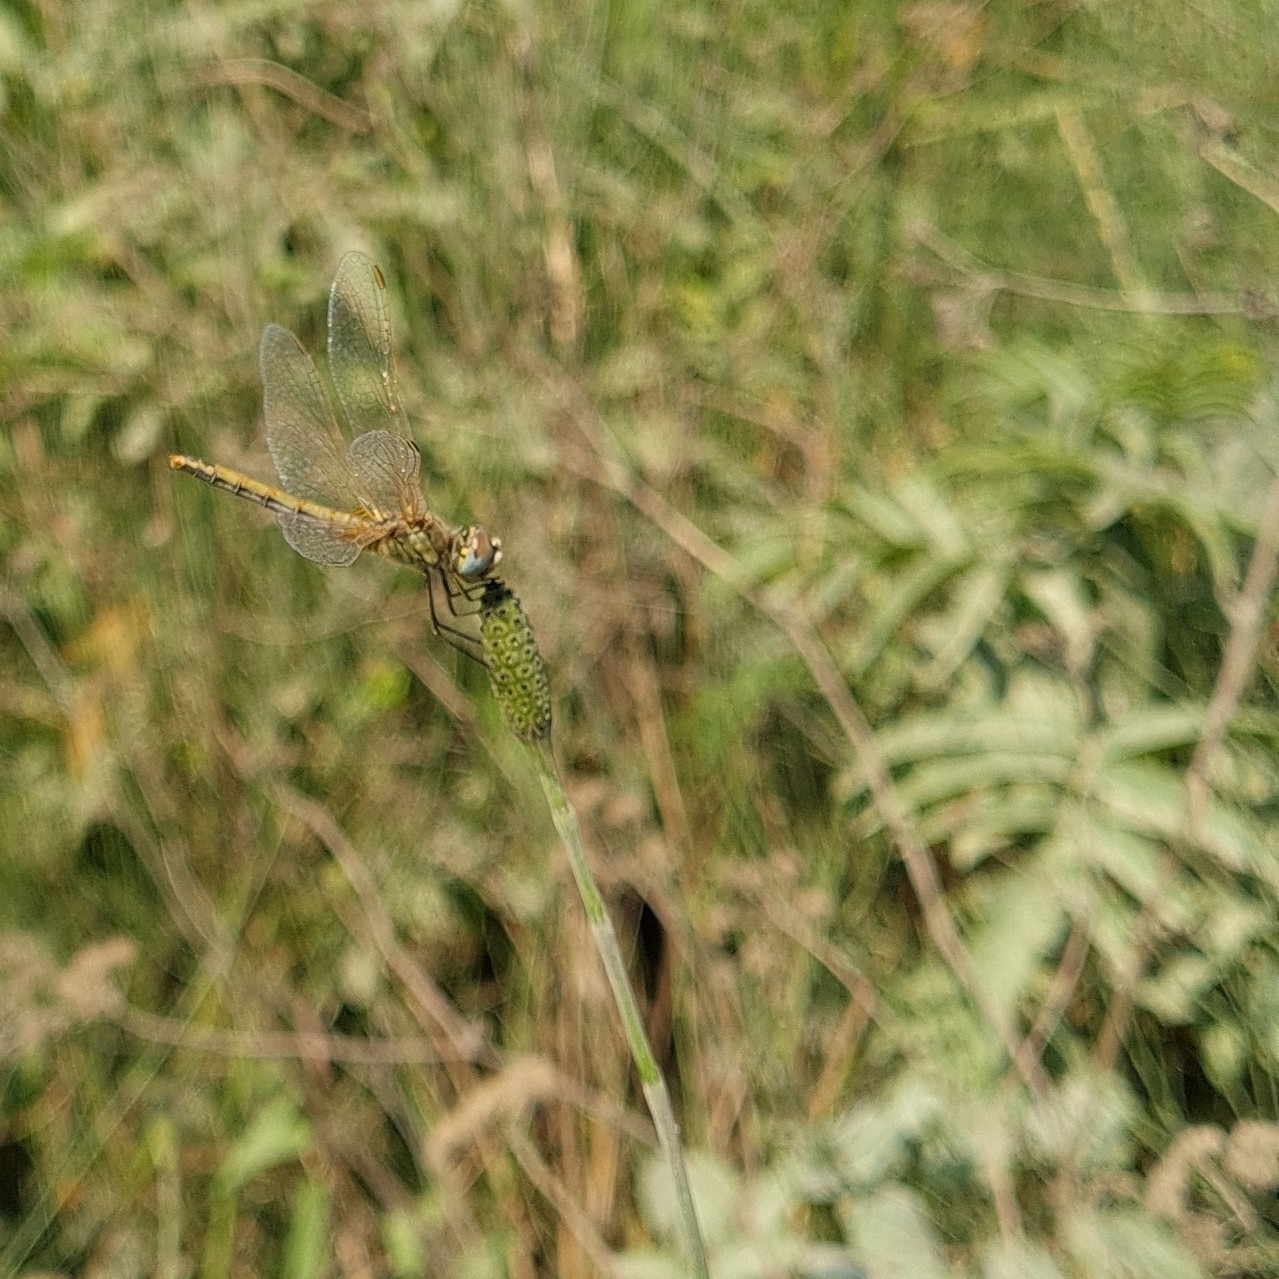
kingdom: Animalia
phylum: Arthropoda
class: Insecta
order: Odonata
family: Libellulidae
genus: Sympetrum
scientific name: Sympetrum fonscolombii
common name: Red-veined darter
